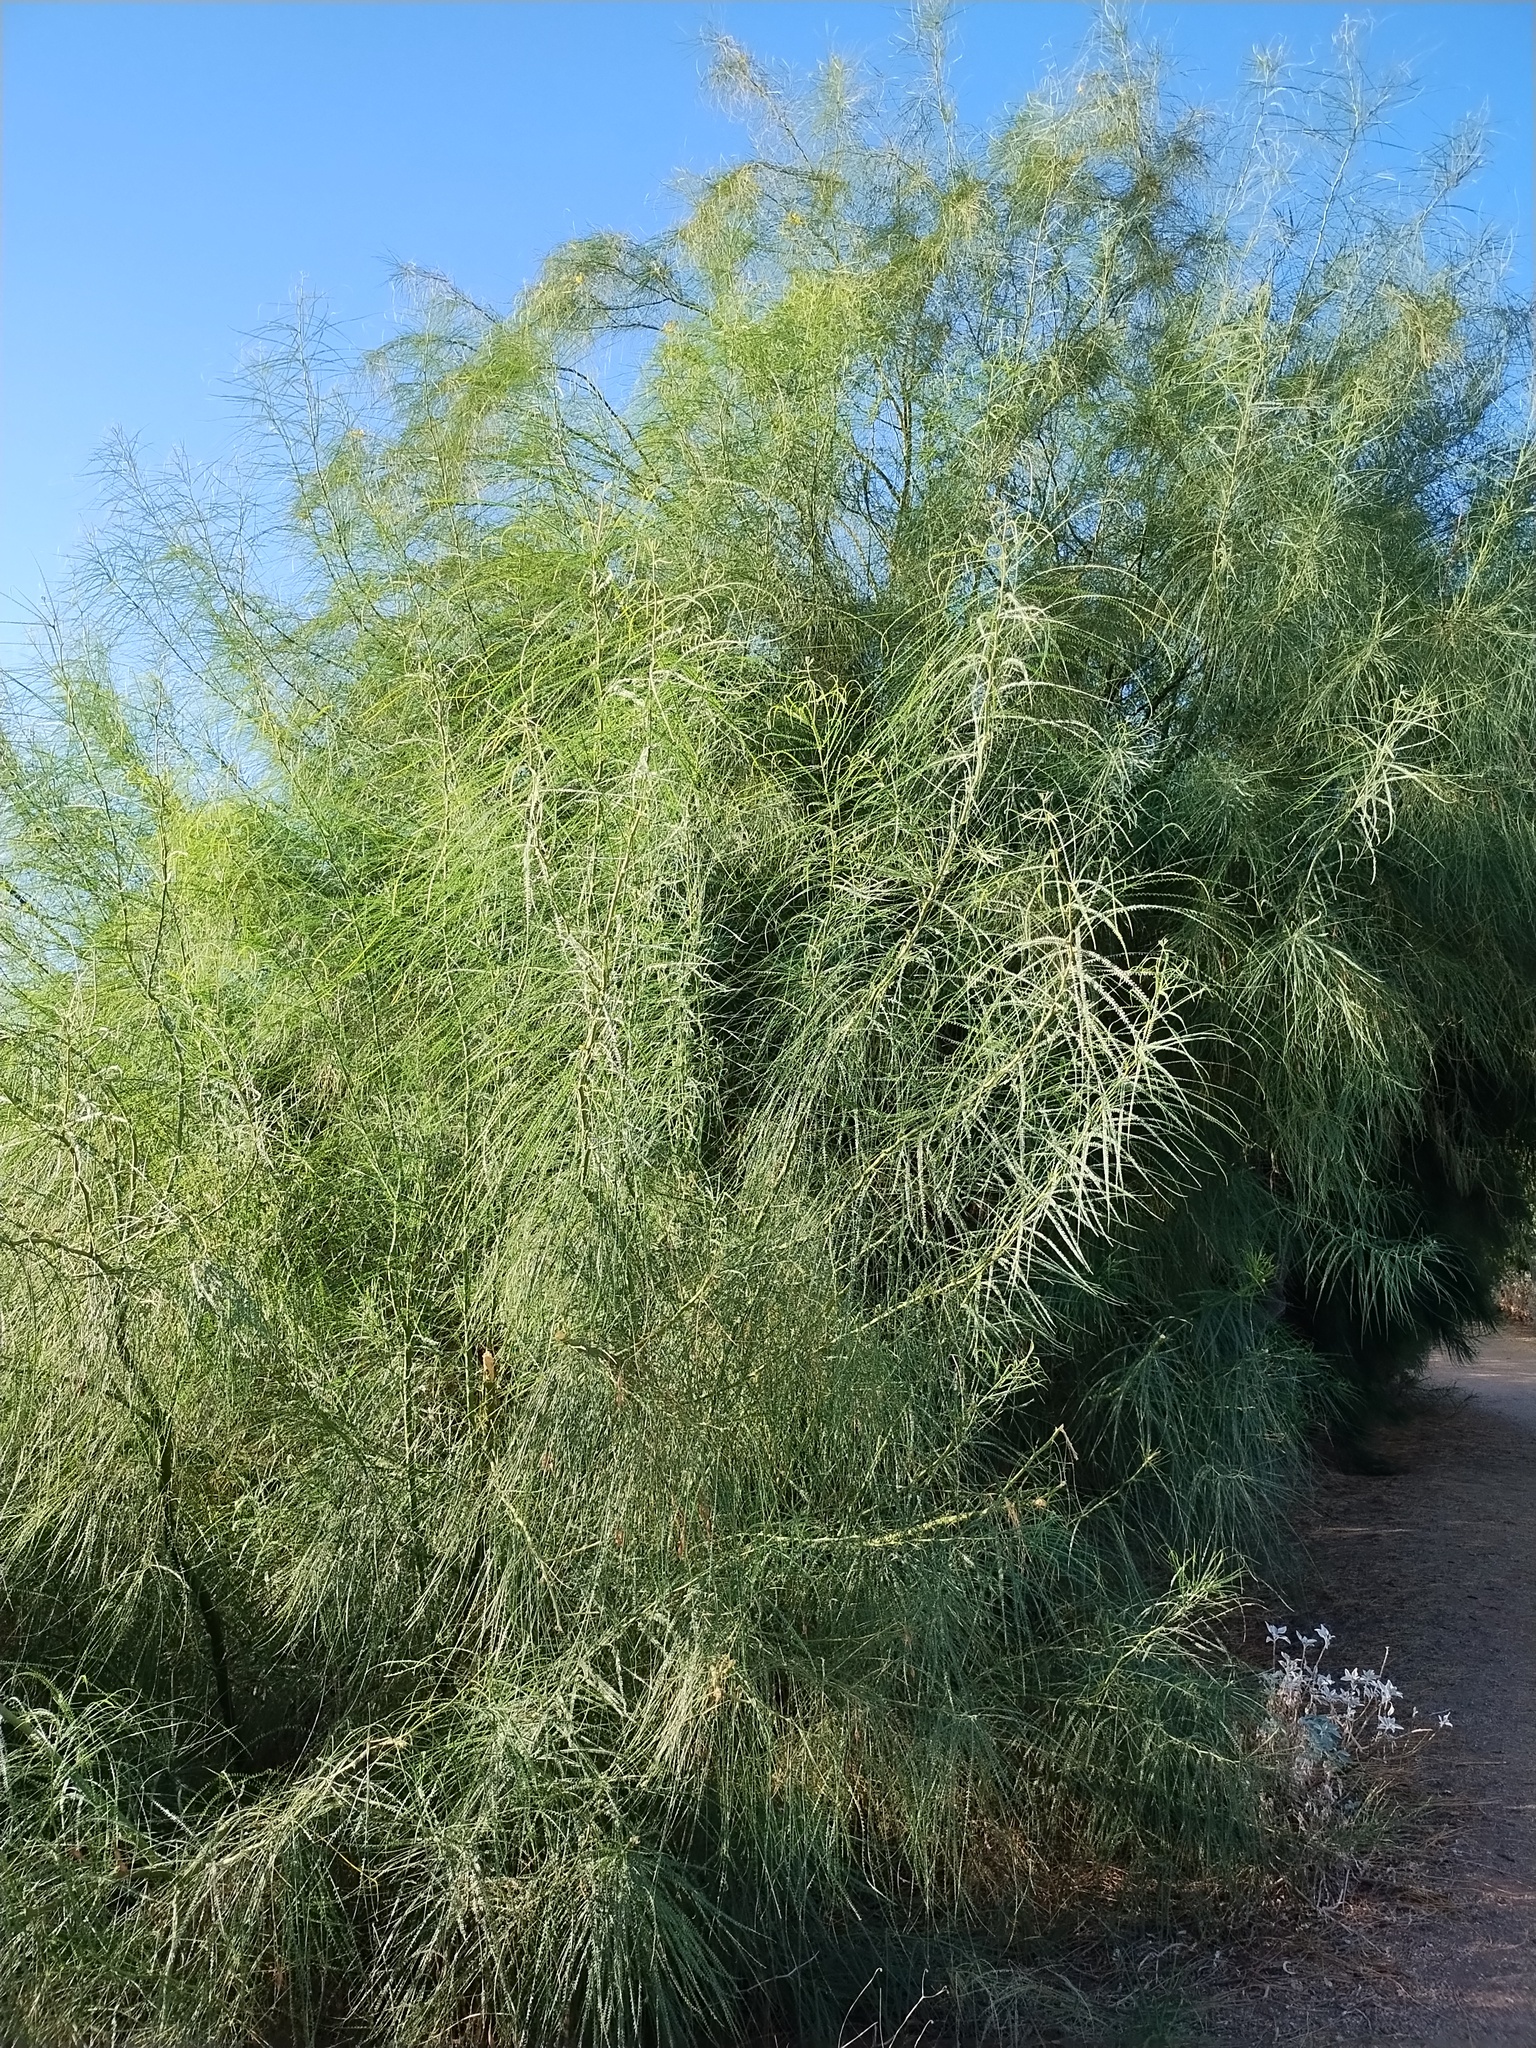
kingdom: Plantae
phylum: Tracheophyta
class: Magnoliopsida
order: Fabales
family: Fabaceae
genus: Parkinsonia
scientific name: Parkinsonia aculeata
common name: Jerusalem thorn
